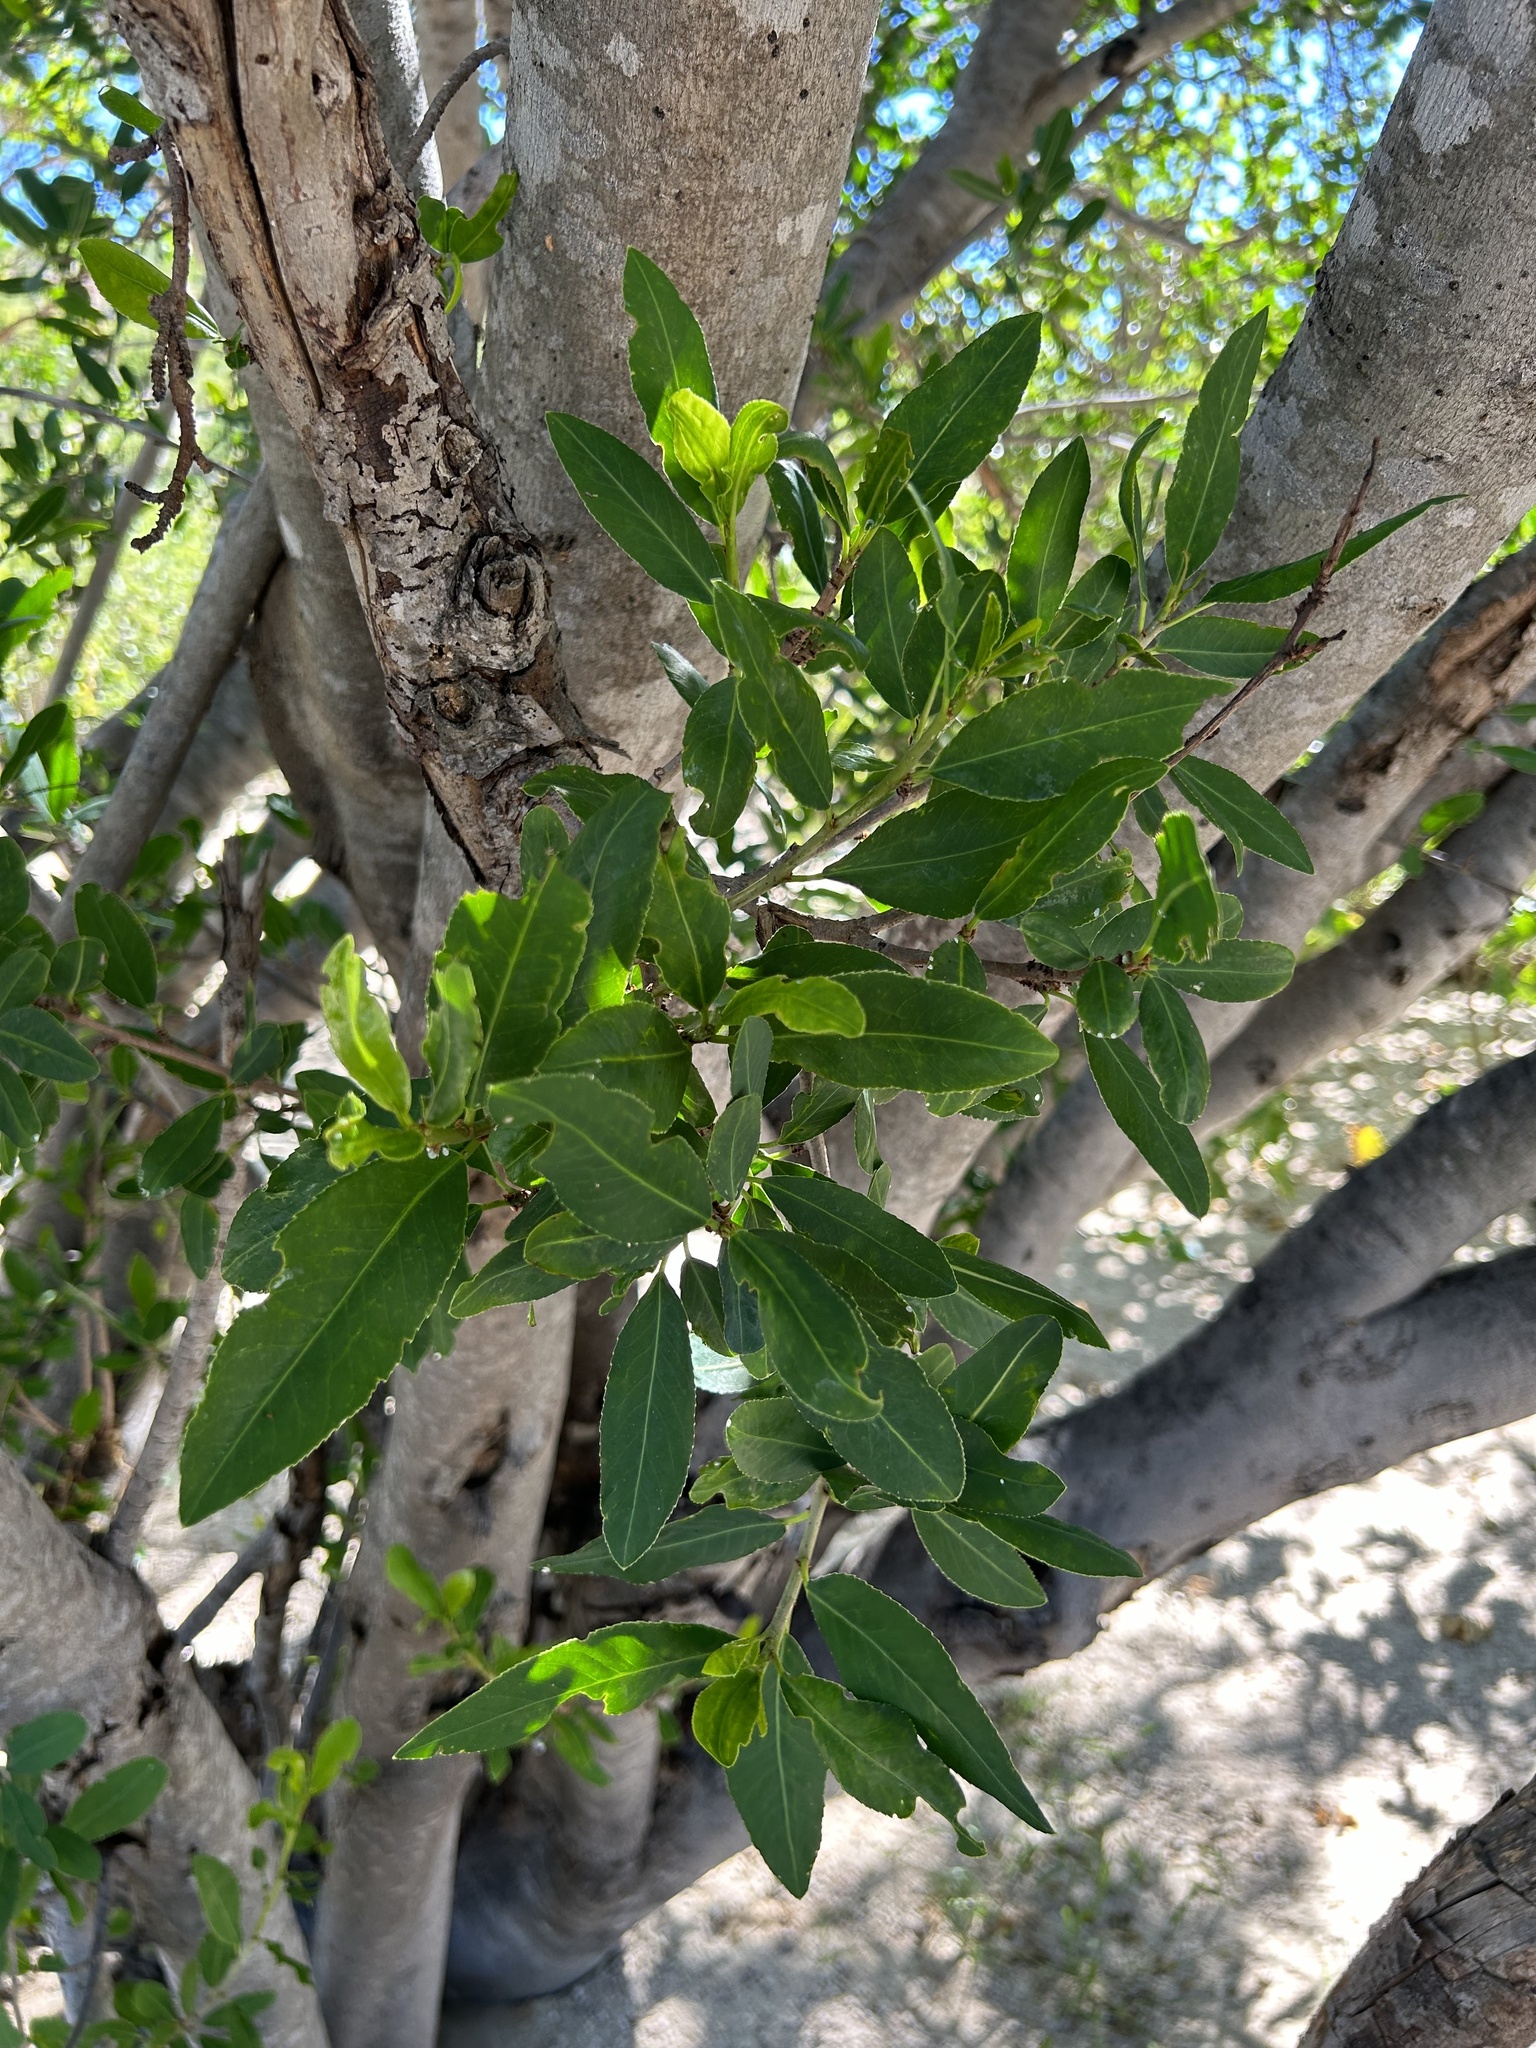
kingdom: Plantae
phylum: Tracheophyta
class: Magnoliopsida
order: Malpighiales
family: Euphorbiaceae
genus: Pleradenophora
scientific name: Pleradenophora bilocularis
